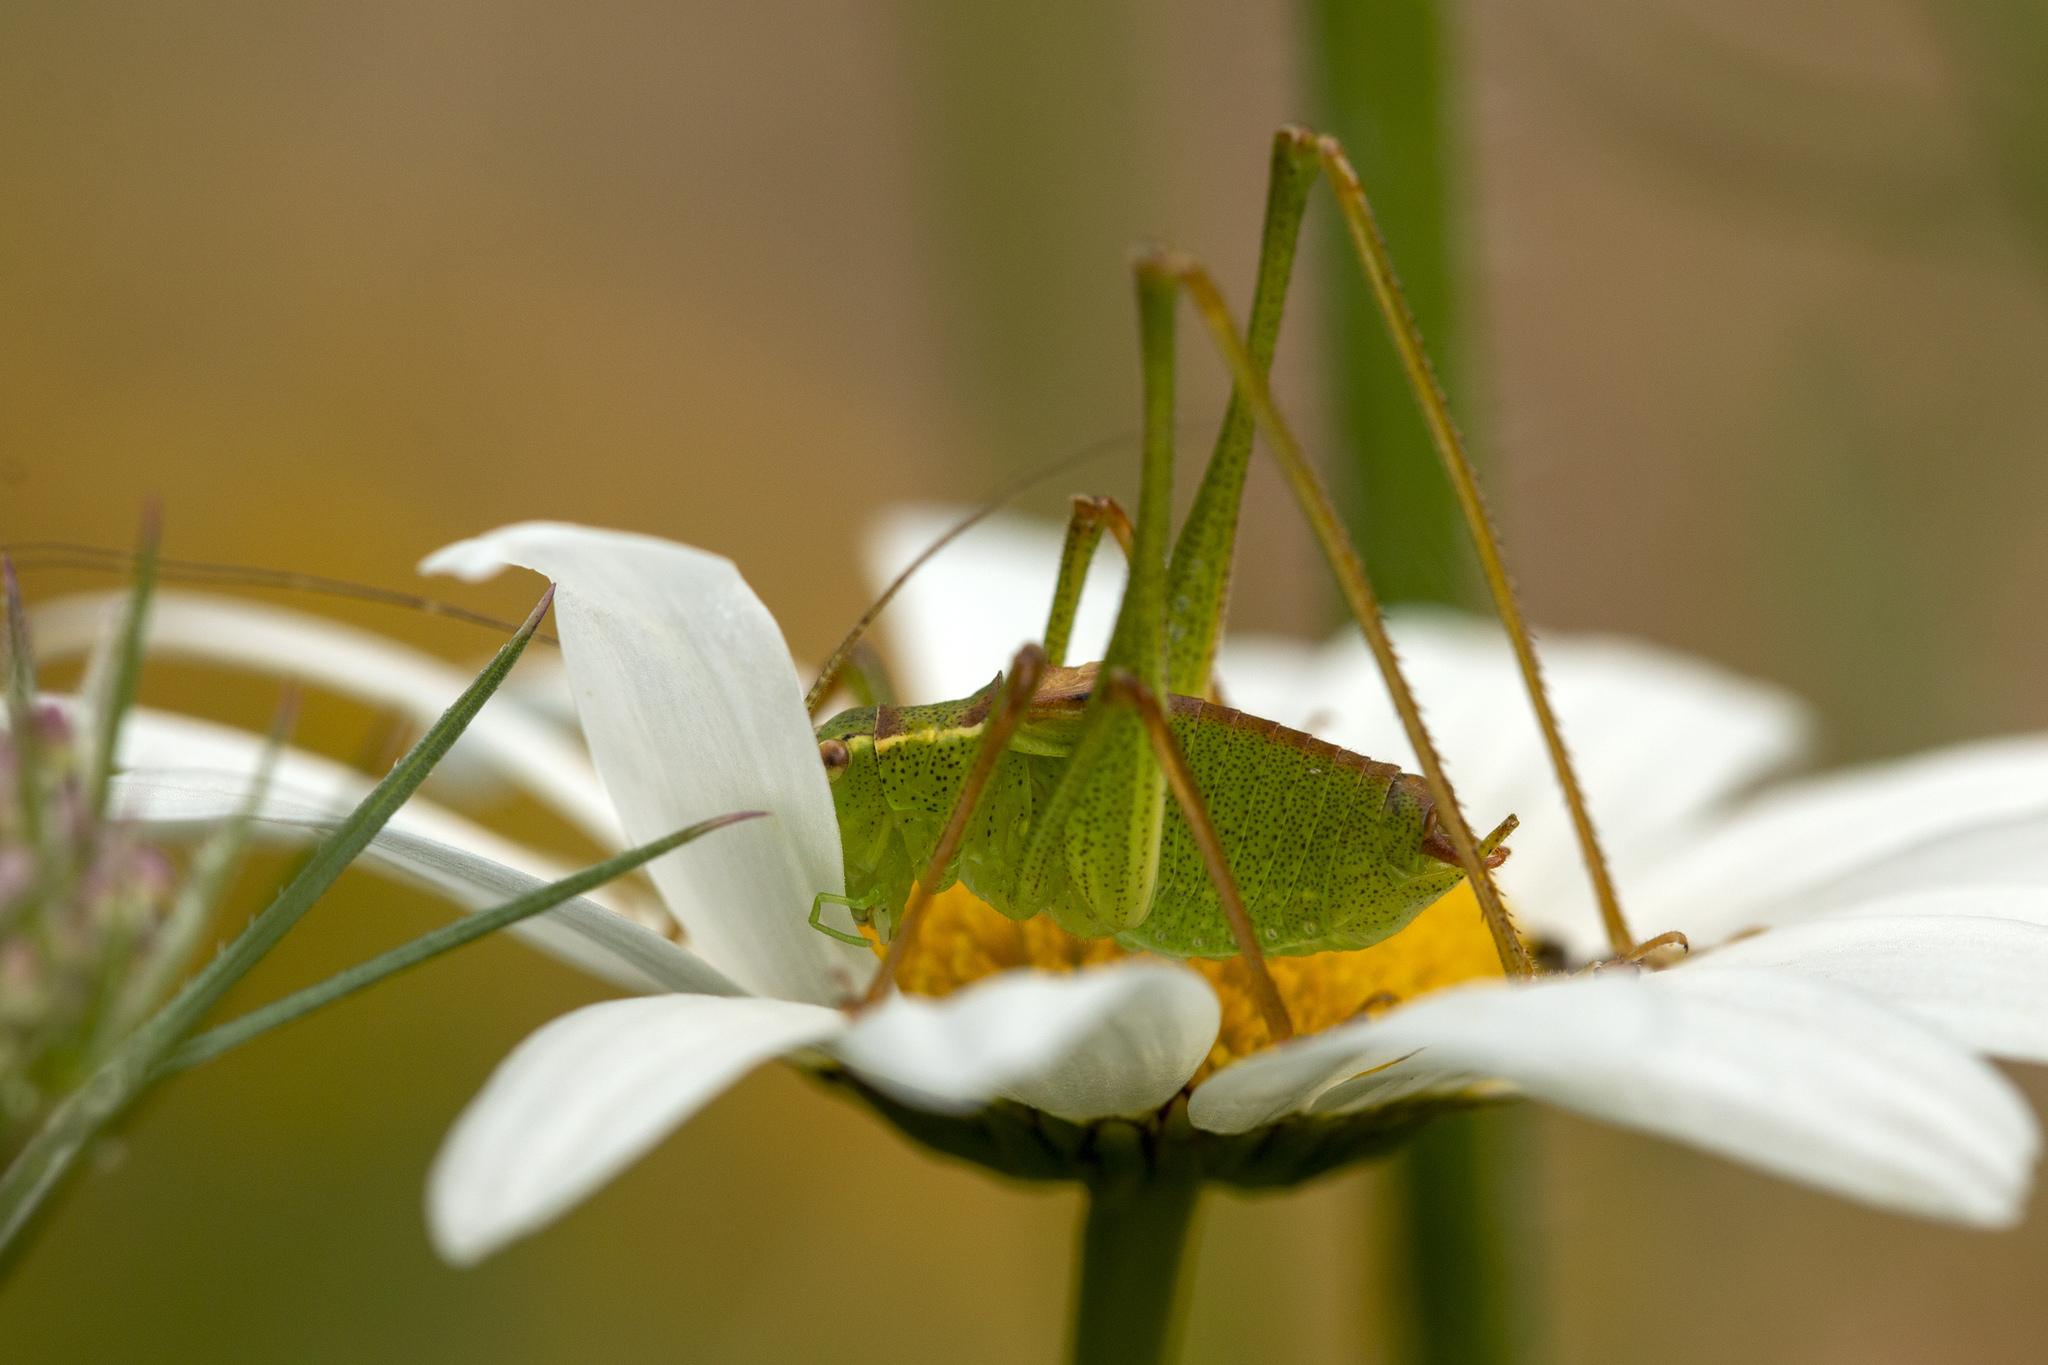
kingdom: Animalia
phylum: Arthropoda
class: Insecta
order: Orthoptera
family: Tettigoniidae
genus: Leptophyes
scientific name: Leptophyes punctatissima
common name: Speckled bush-cricket
